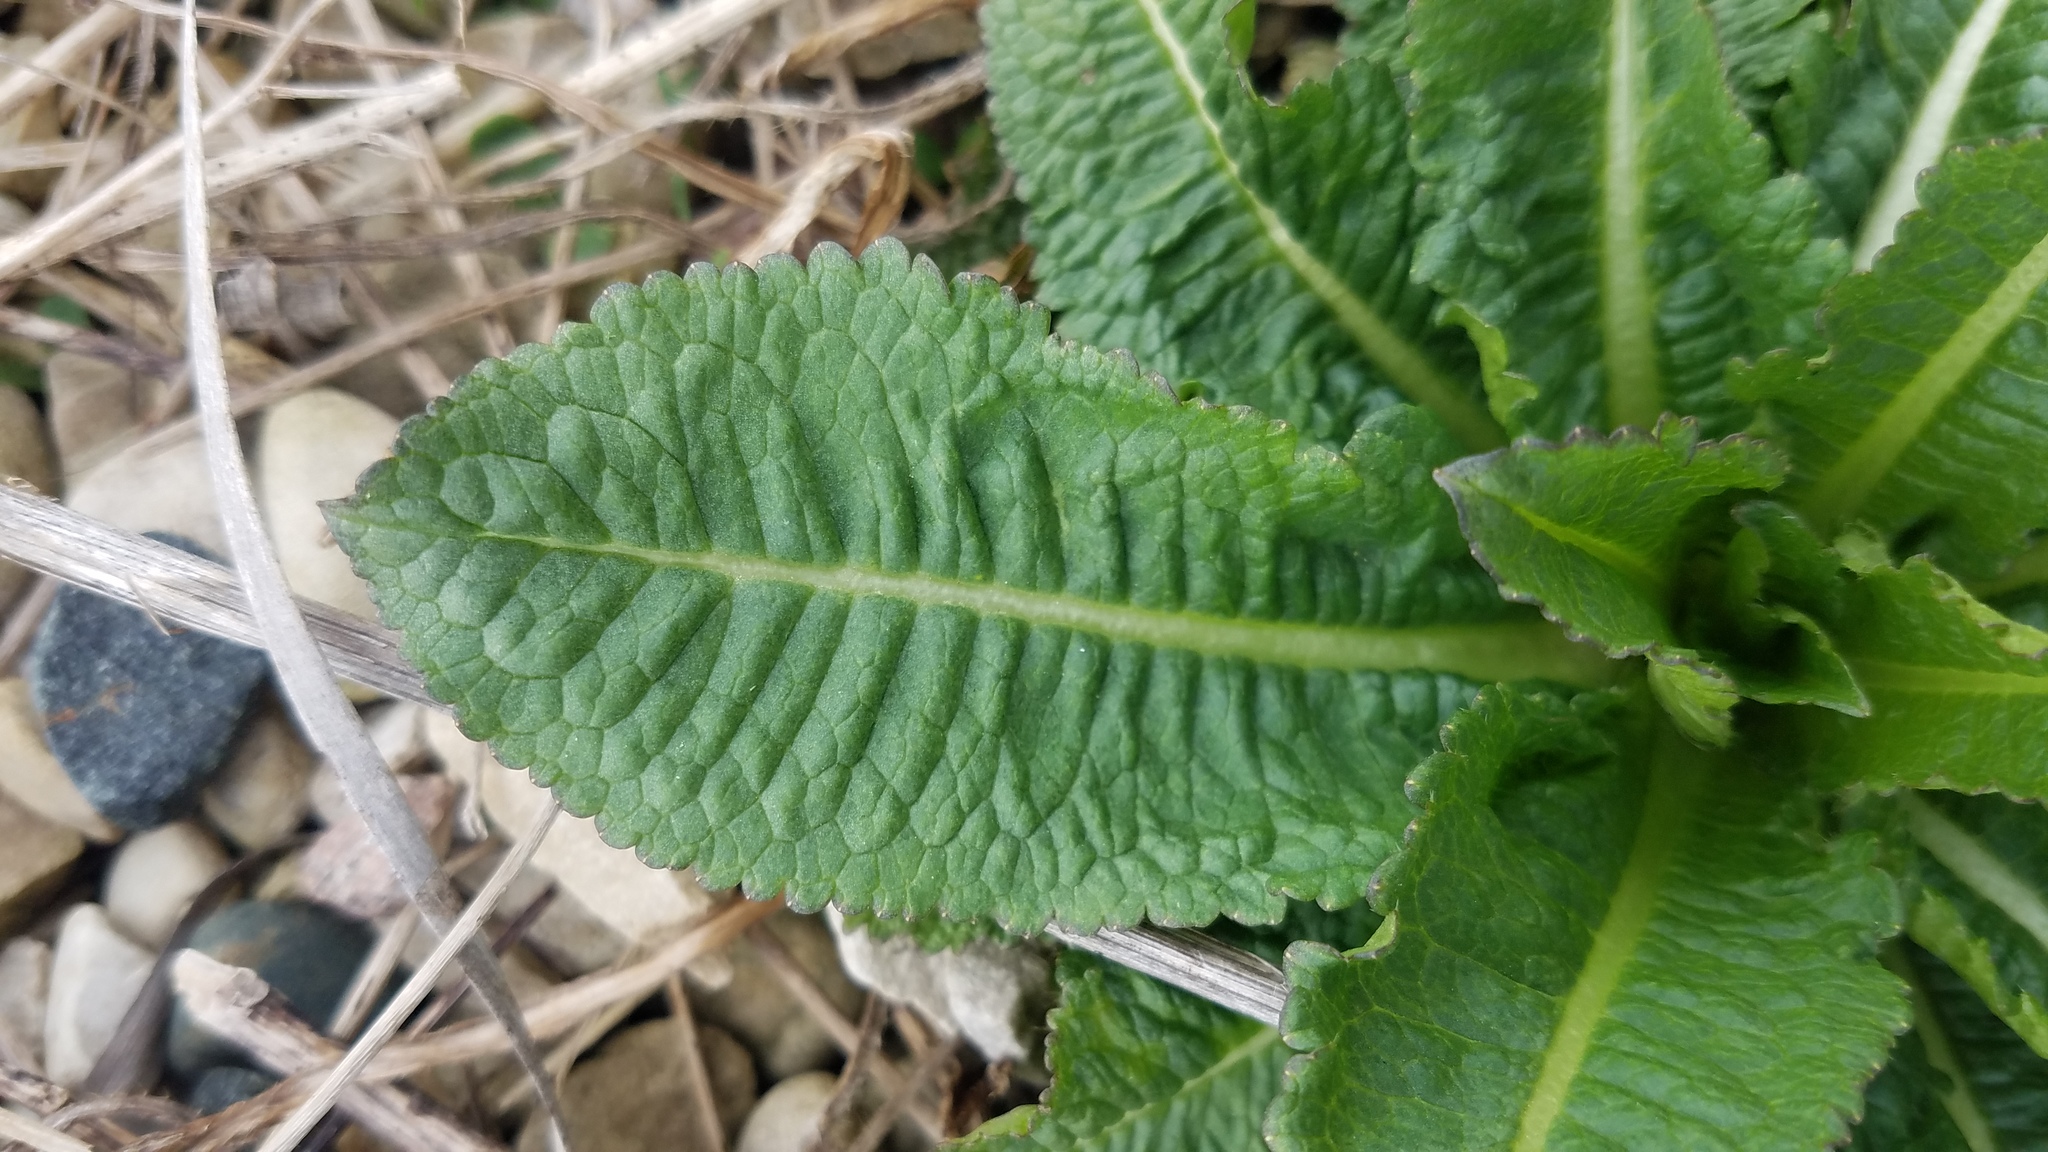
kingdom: Plantae
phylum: Tracheophyta
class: Magnoliopsida
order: Dipsacales
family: Caprifoliaceae
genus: Dipsacus
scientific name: Dipsacus fullonum
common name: Teasel
